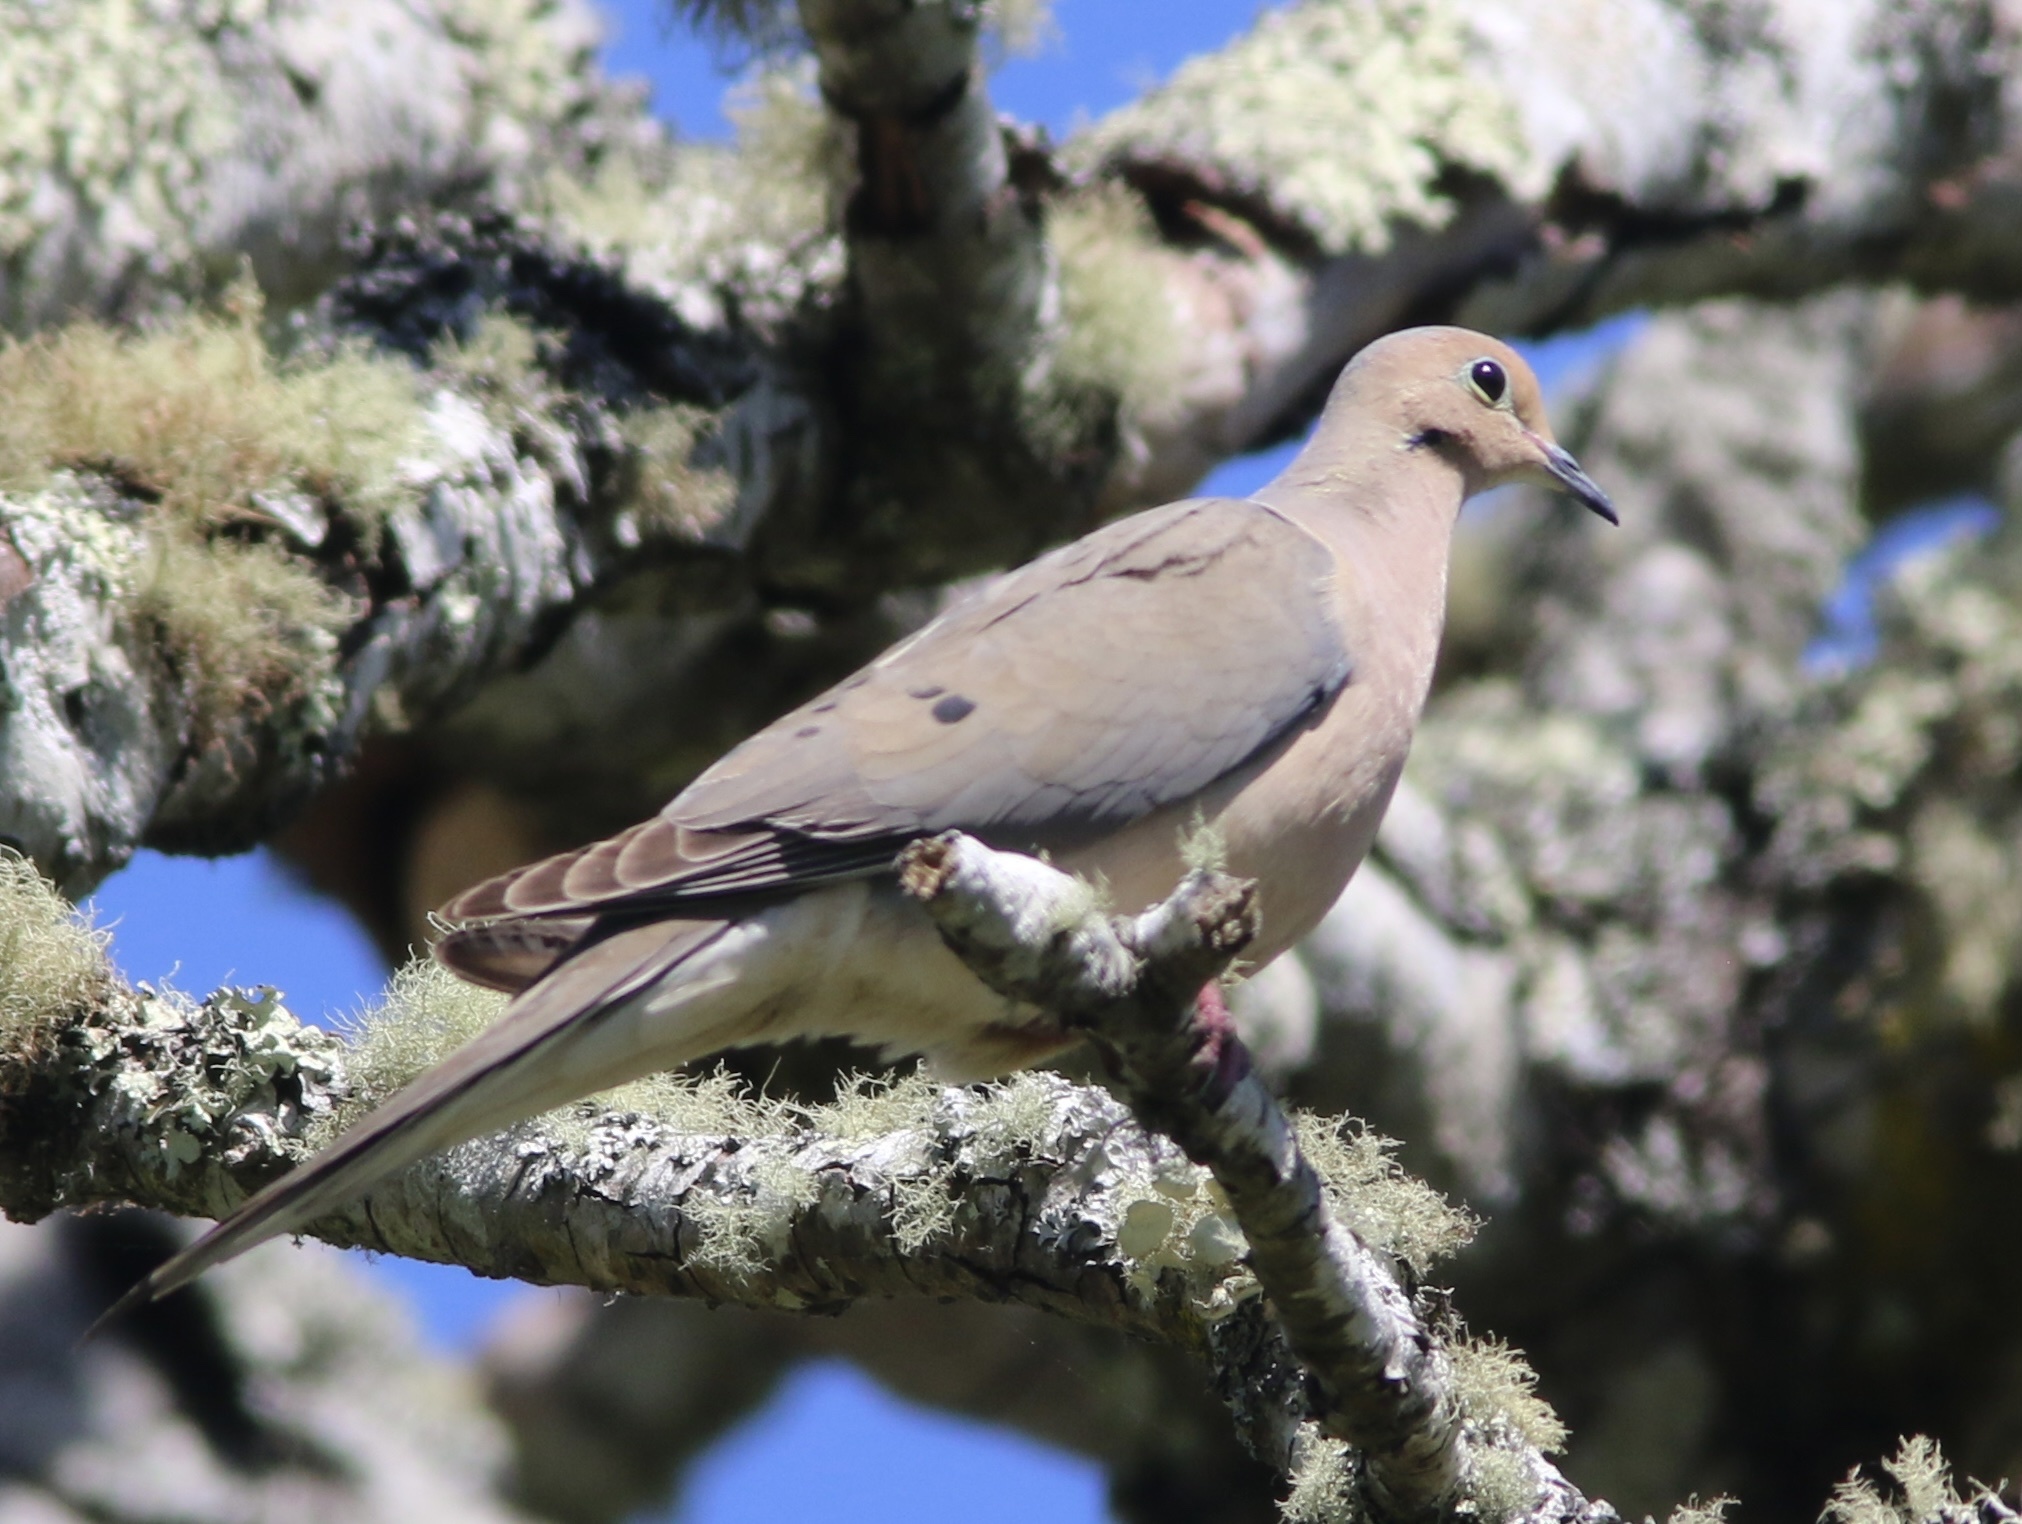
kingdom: Animalia
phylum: Chordata
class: Aves
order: Columbiformes
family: Columbidae
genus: Zenaida
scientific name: Zenaida macroura
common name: Mourning dove
